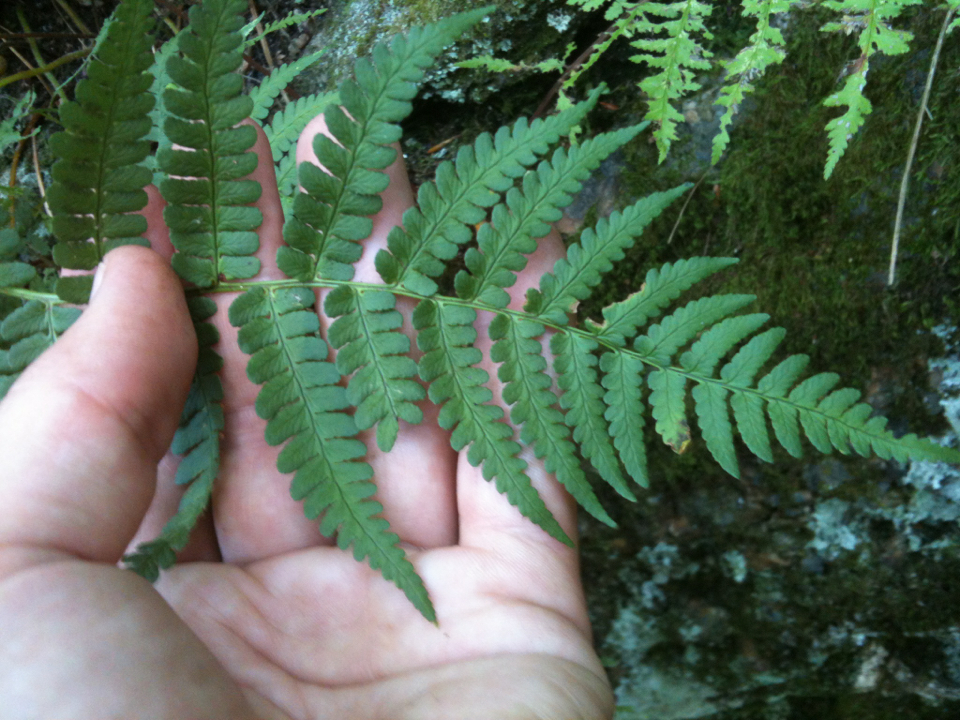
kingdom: Plantae
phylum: Tracheophyta
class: Polypodiopsida
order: Polypodiales
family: Dryopteridaceae
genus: Dryopteris
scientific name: Dryopteris marginalis
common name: Marginal wood fern
